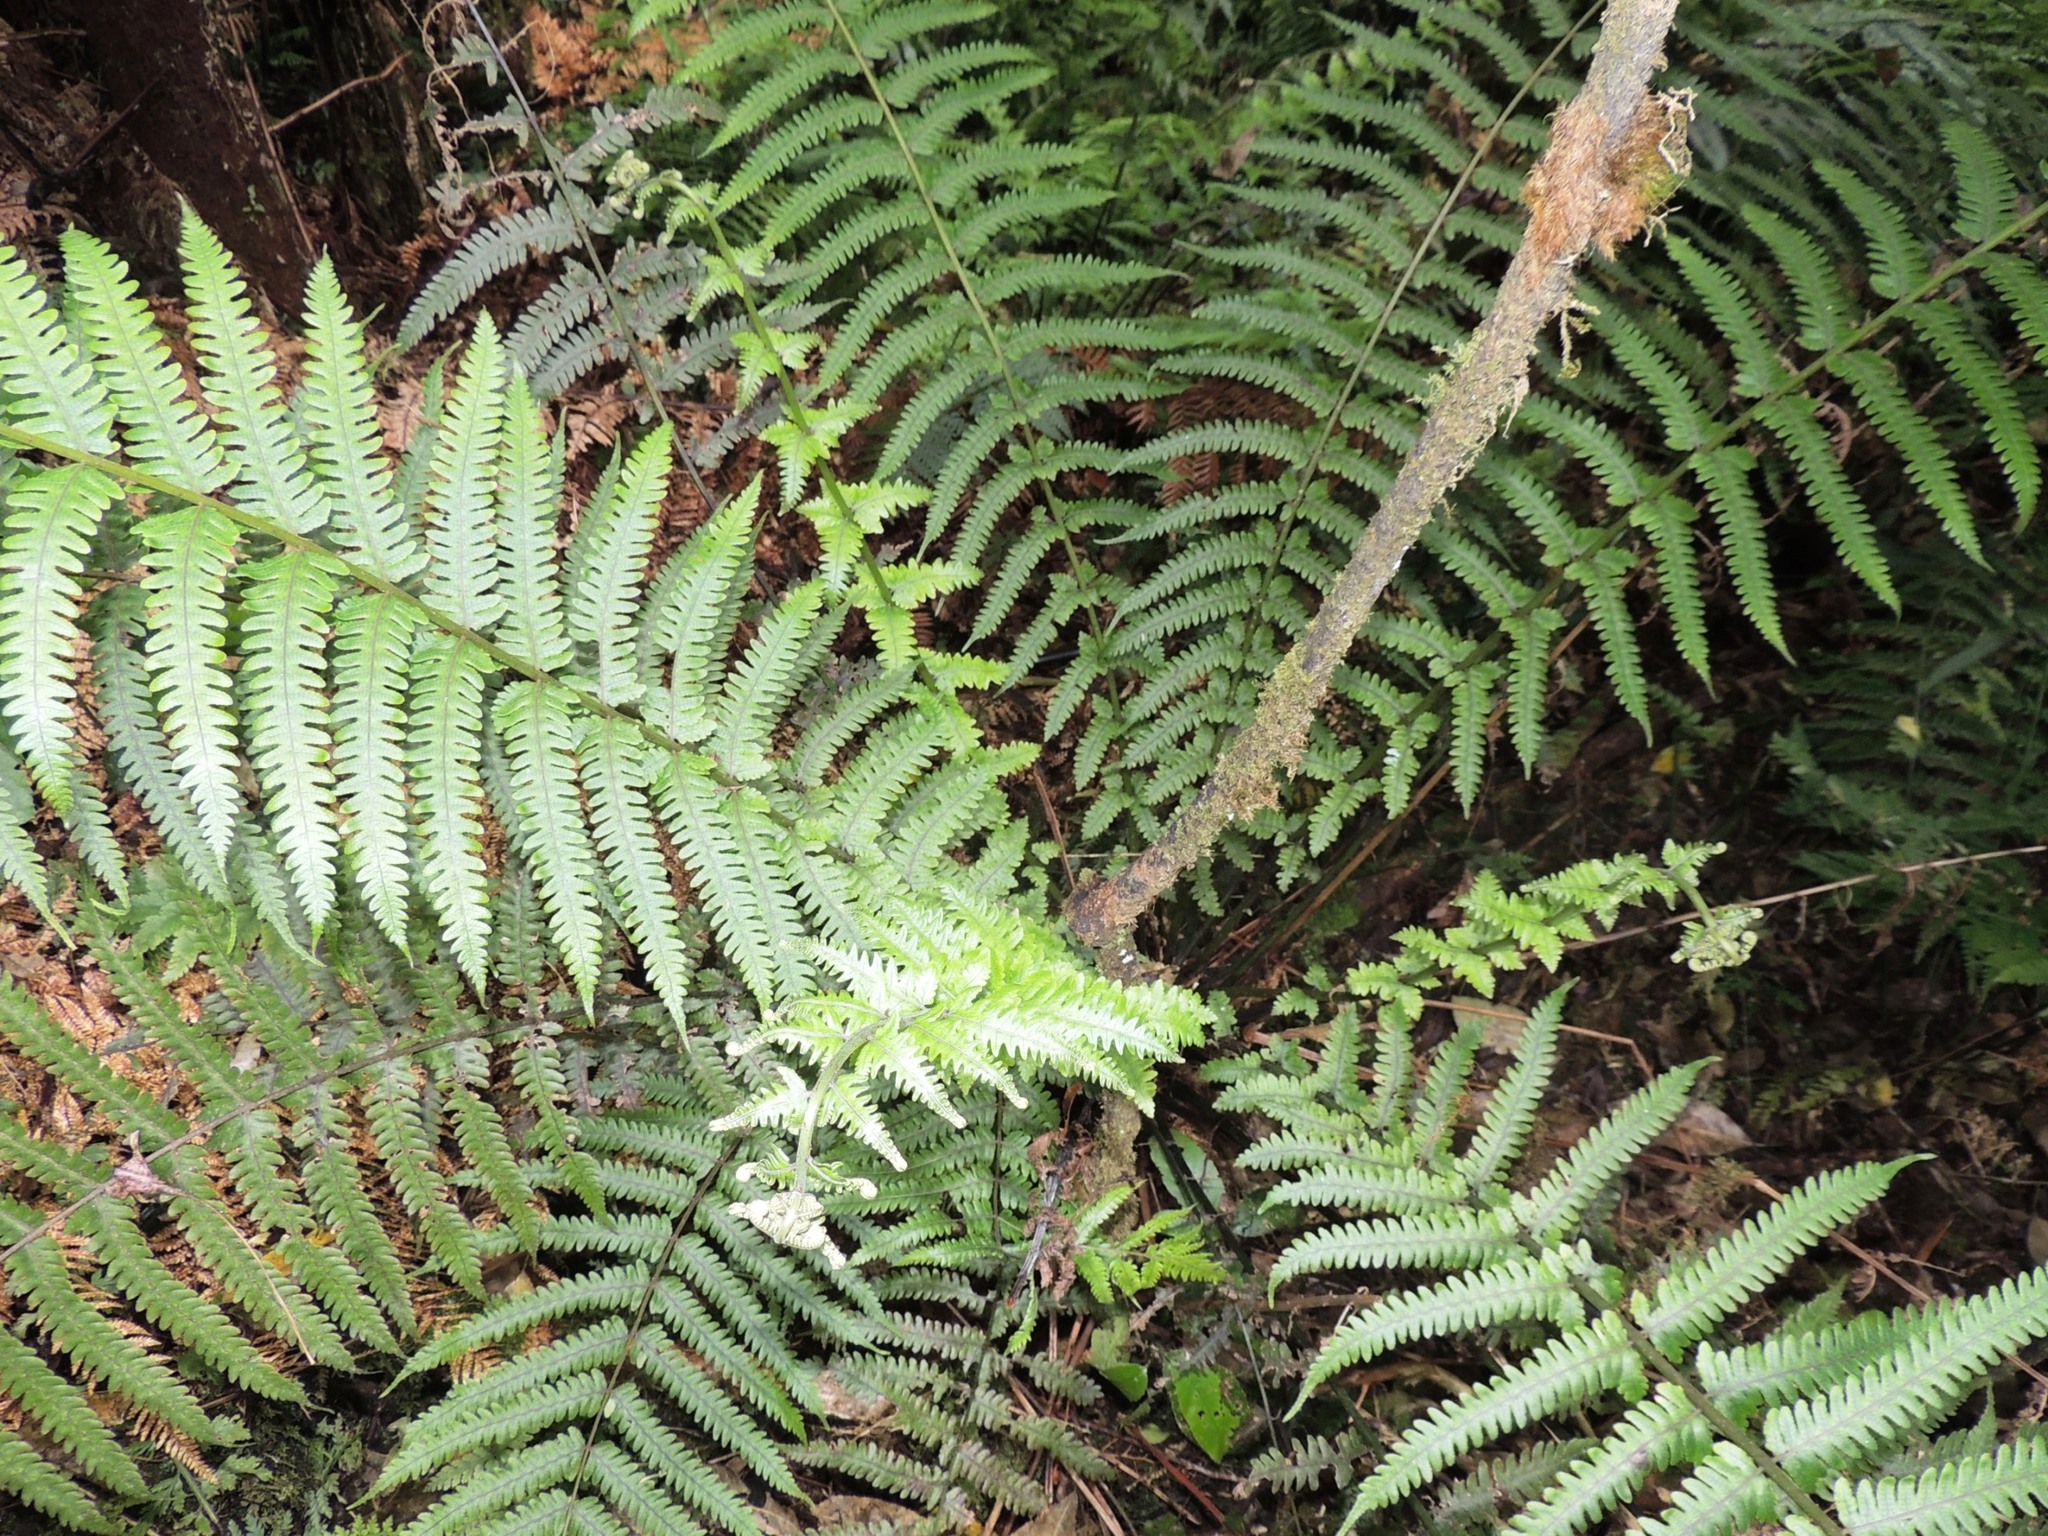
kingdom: Plantae
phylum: Tracheophyta
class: Polypodiopsida
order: Polypodiales
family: Thelypteridaceae
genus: Pakau
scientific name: Pakau pennigera
